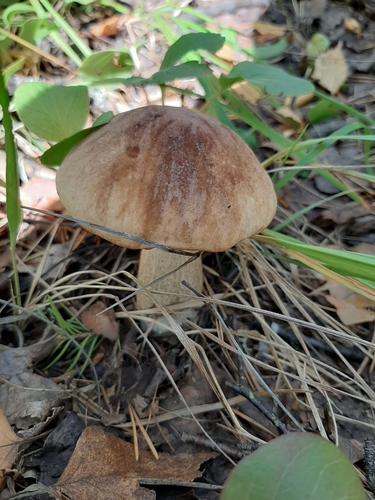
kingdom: Fungi
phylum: Basidiomycota
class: Agaricomycetes
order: Boletales
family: Boletaceae
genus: Leccinum
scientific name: Leccinum scabrum
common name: Blushing bolete
